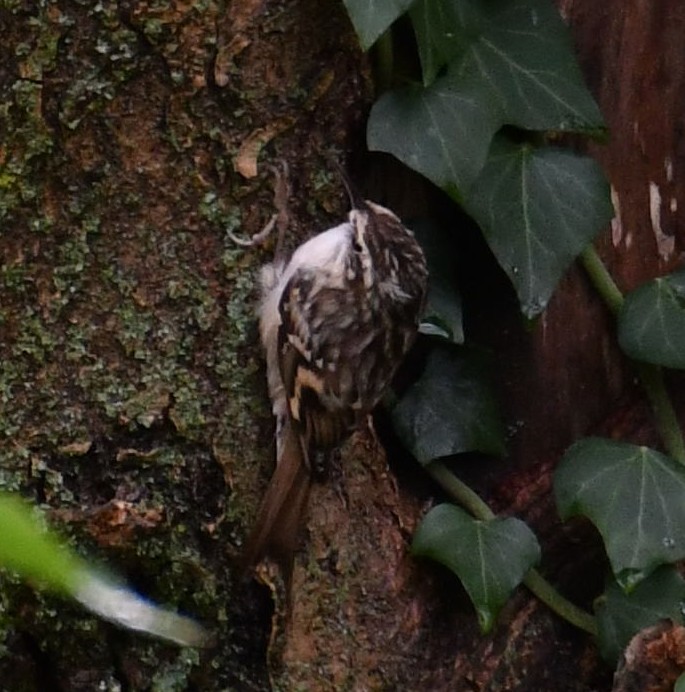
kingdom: Animalia
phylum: Chordata
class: Aves
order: Passeriformes
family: Certhiidae
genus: Certhia
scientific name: Certhia brachydactyla
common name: Short-toed treecreeper
